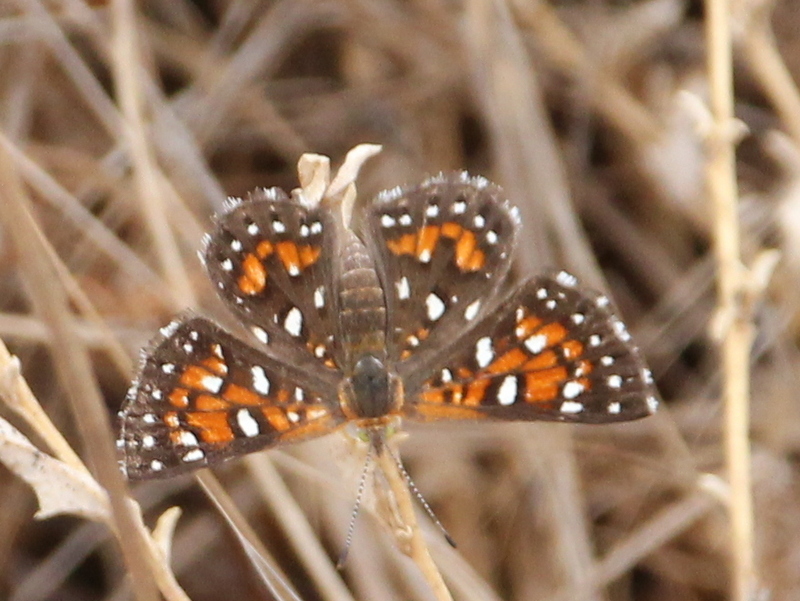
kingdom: Animalia
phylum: Arthropoda
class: Insecta
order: Lepidoptera
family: Riodinidae
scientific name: Riodinidae
